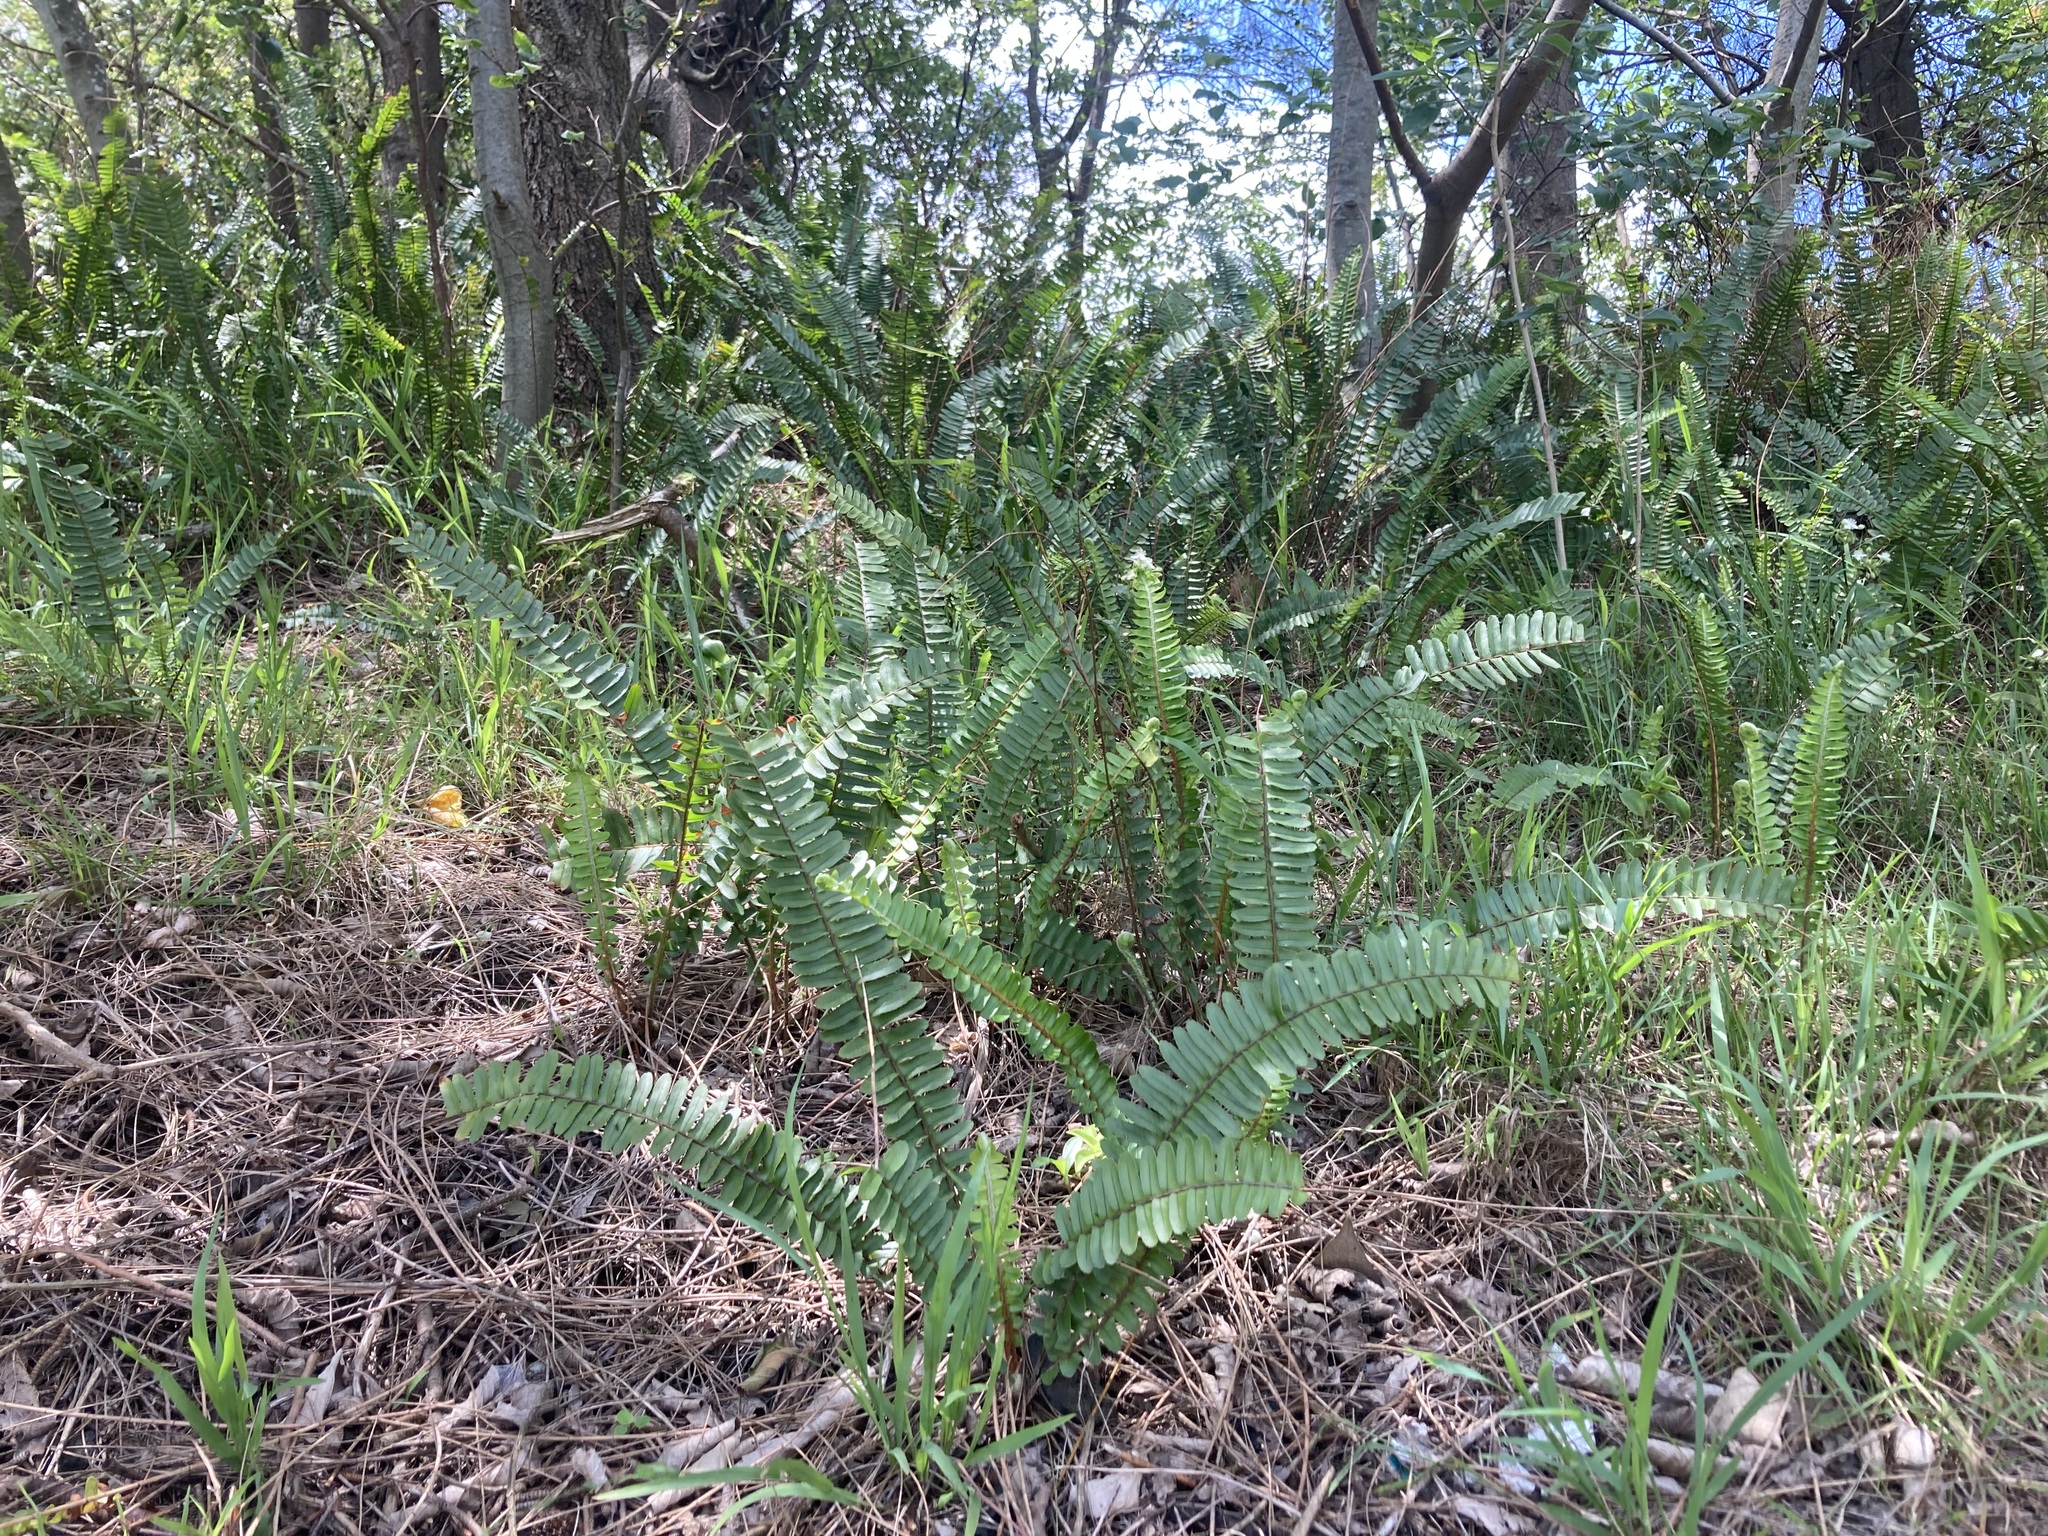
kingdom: Plantae
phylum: Tracheophyta
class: Polypodiopsida
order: Polypodiales
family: Nephrolepidaceae
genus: Nephrolepis
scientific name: Nephrolepis cordifolia
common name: Narrow swordfern
